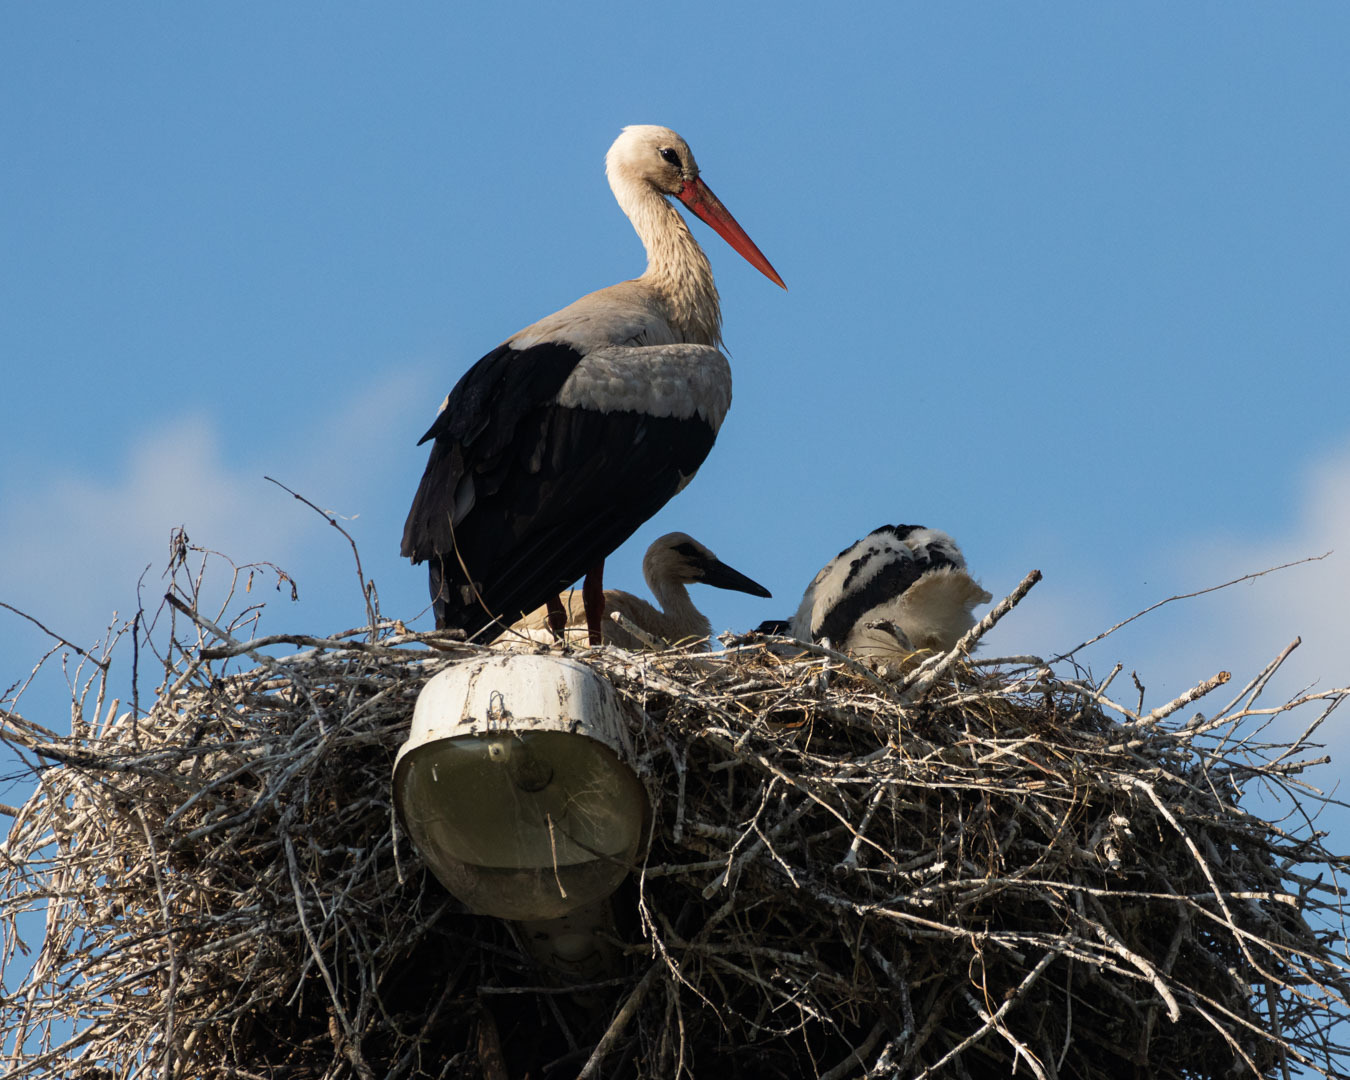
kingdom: Animalia
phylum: Chordata
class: Aves
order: Ciconiiformes
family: Ciconiidae
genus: Ciconia
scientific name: Ciconia ciconia
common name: White stork
